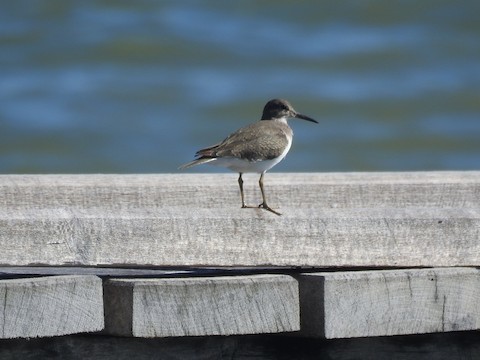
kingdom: Animalia
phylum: Chordata
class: Aves
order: Charadriiformes
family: Scolopacidae
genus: Actitis
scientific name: Actitis hypoleucos
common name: Common sandpiper
